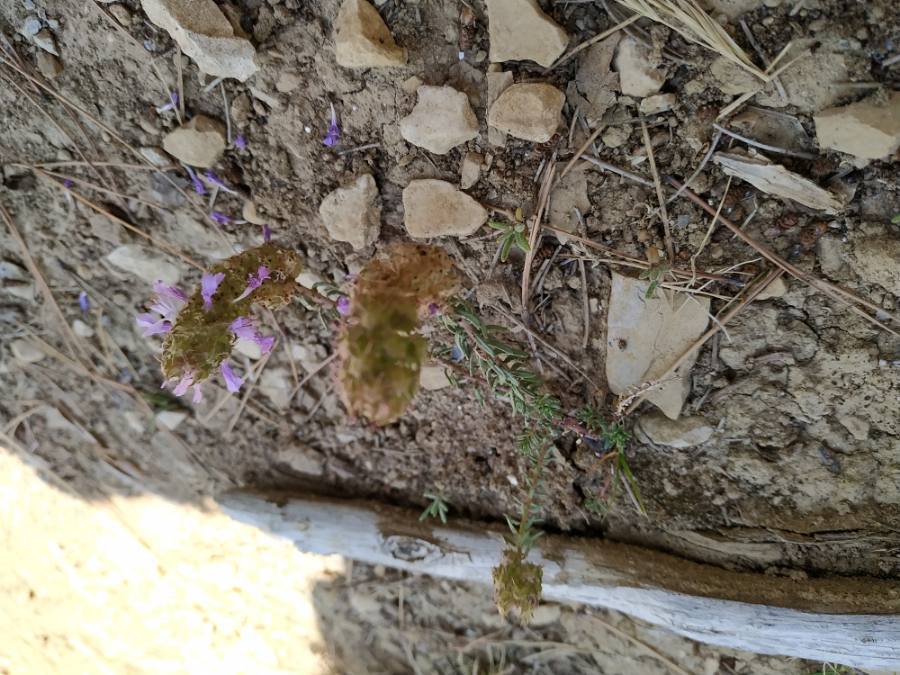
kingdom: Plantae
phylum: Tracheophyta
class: Magnoliopsida
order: Ericales
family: Primulaceae
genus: Coris
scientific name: Coris monspeliensis
